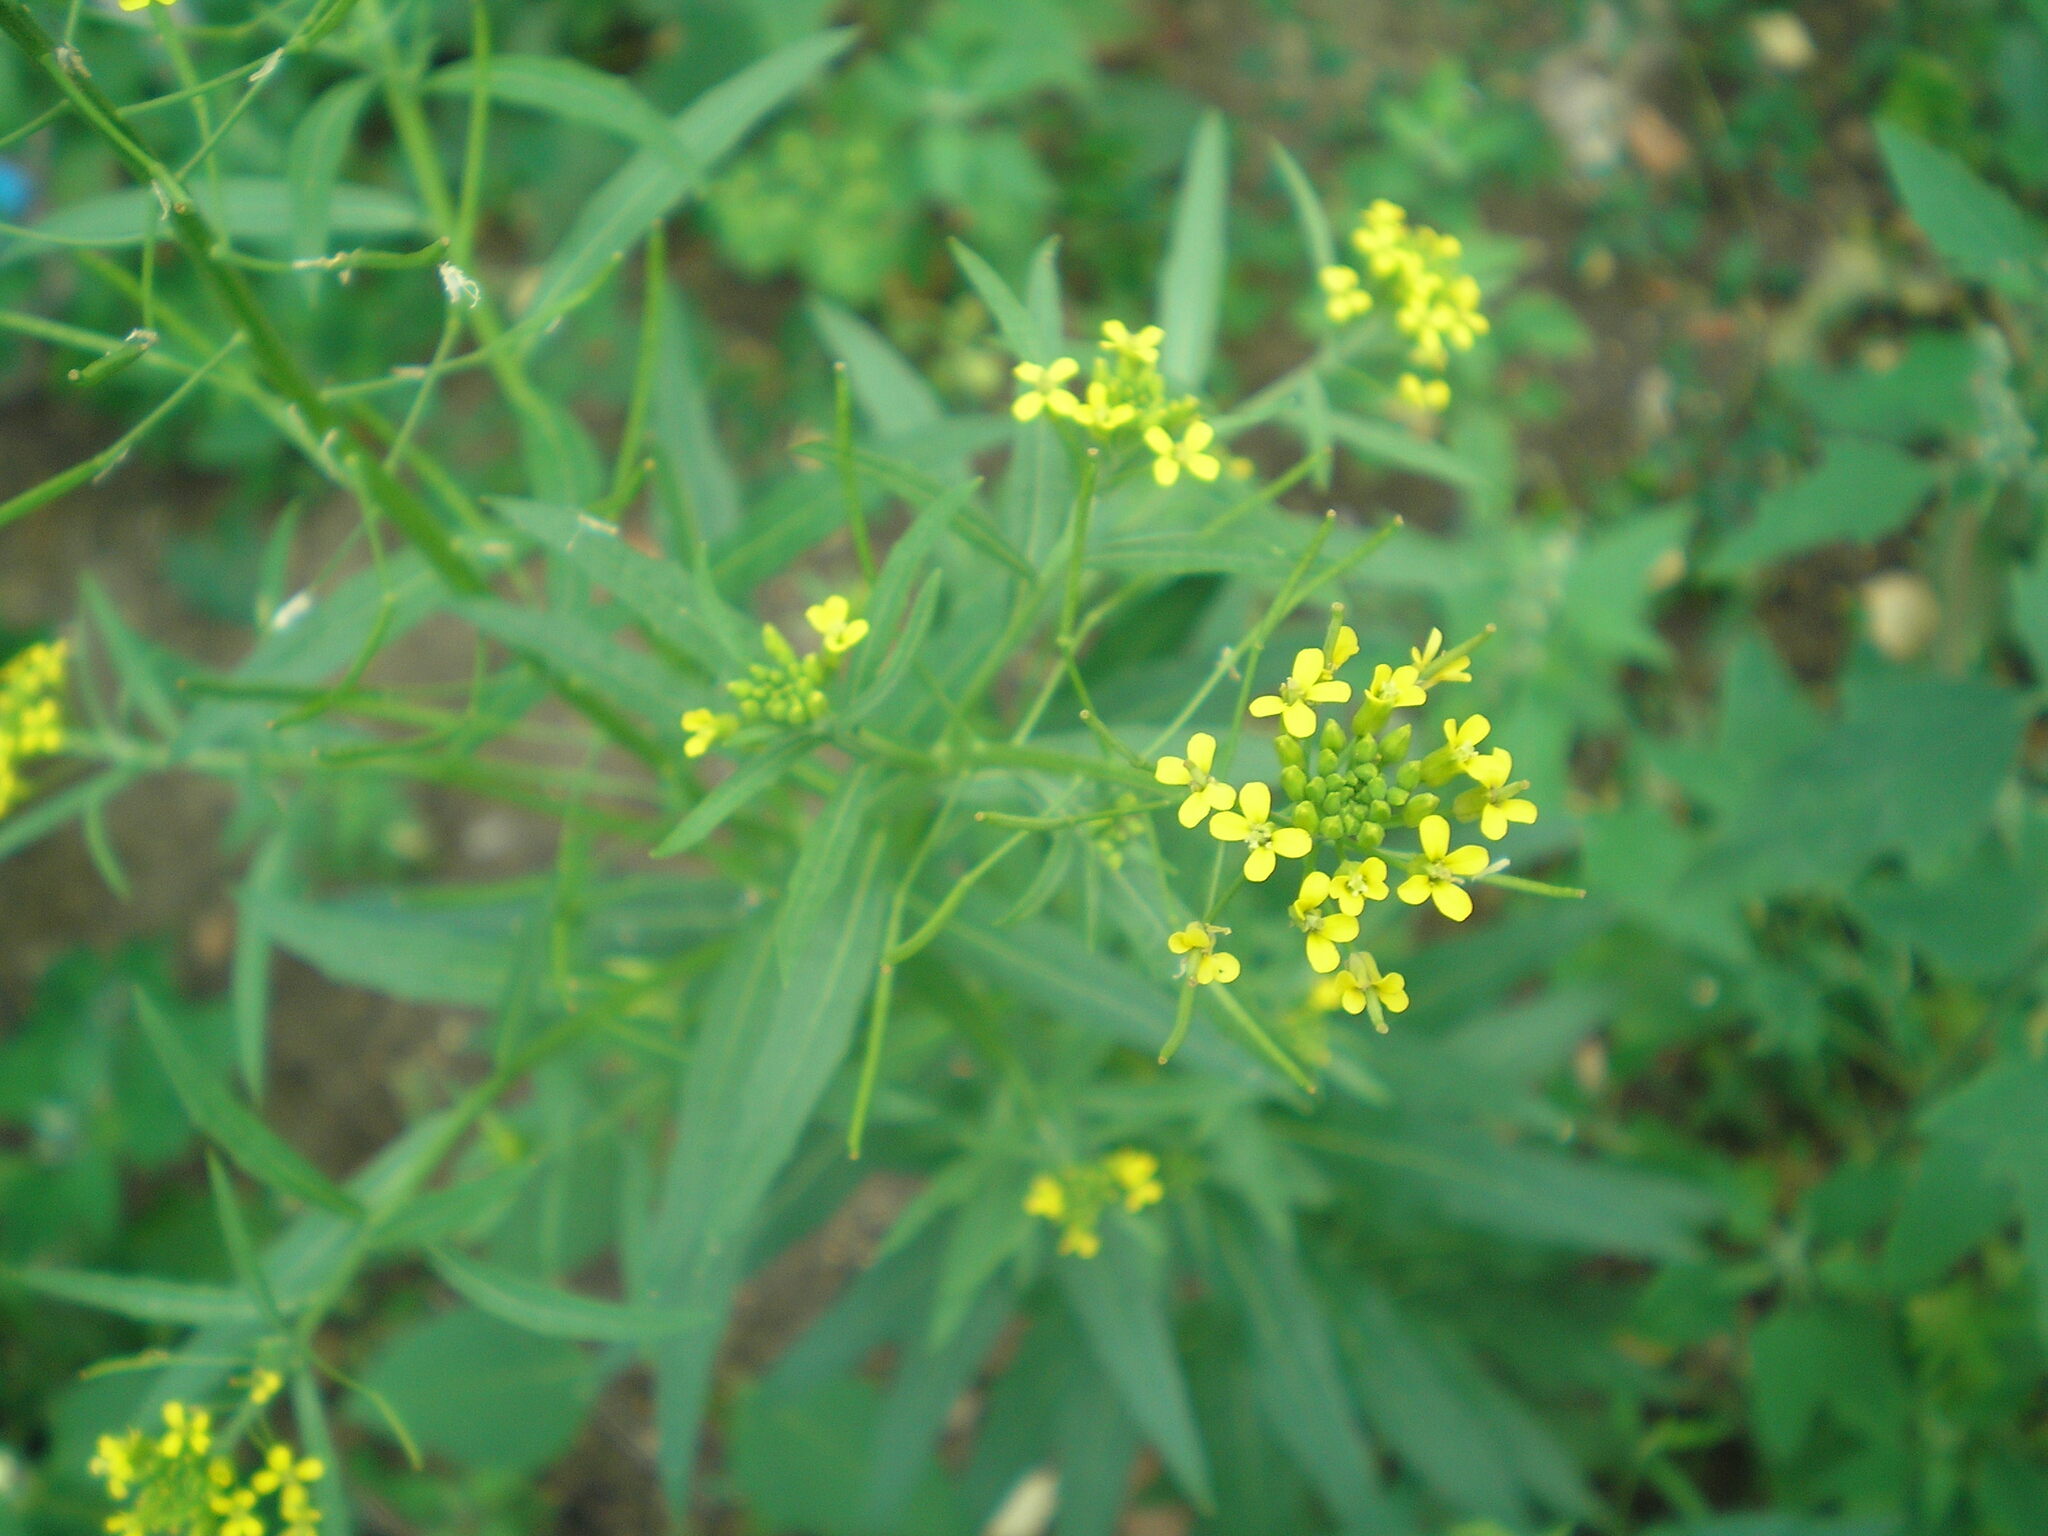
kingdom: Plantae
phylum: Tracheophyta
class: Magnoliopsida
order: Brassicales
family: Brassicaceae
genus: Erysimum
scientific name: Erysimum cheiranthoides
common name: Treacle mustard
